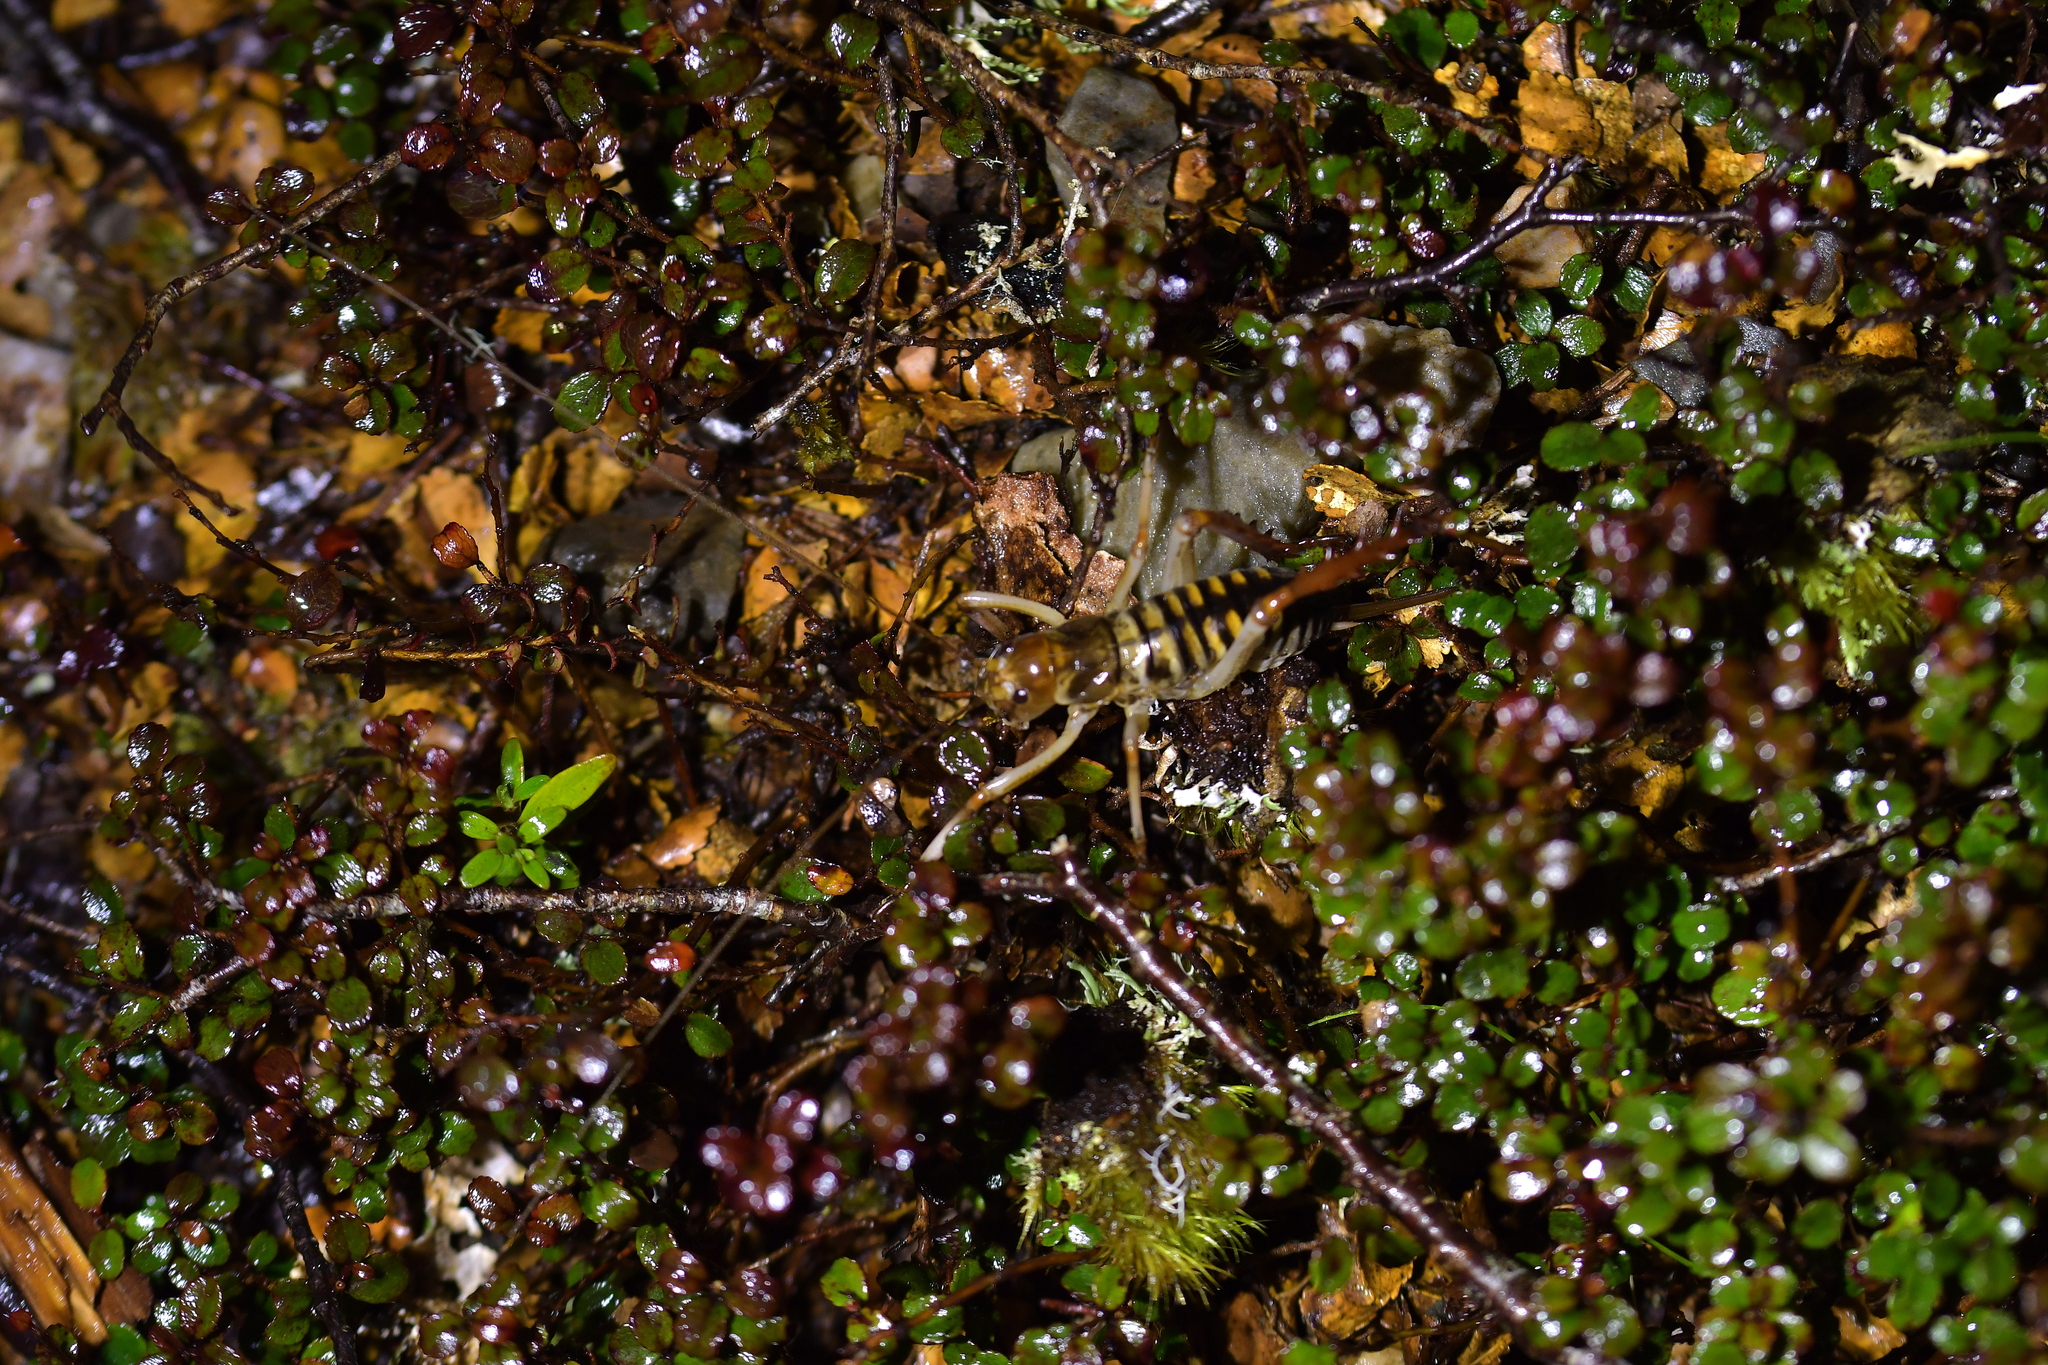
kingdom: Animalia
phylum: Arthropoda
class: Insecta
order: Orthoptera
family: Anostostomatidae
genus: Hemideina
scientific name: Hemideina crassidens
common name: Wellington tree weta
